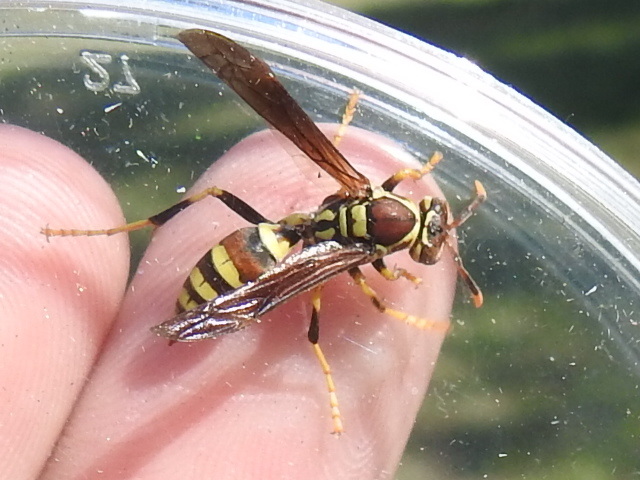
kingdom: Animalia
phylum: Arthropoda
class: Insecta
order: Hymenoptera
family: Eumenidae
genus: Polistes
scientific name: Polistes exclamans
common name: Paper wasp
